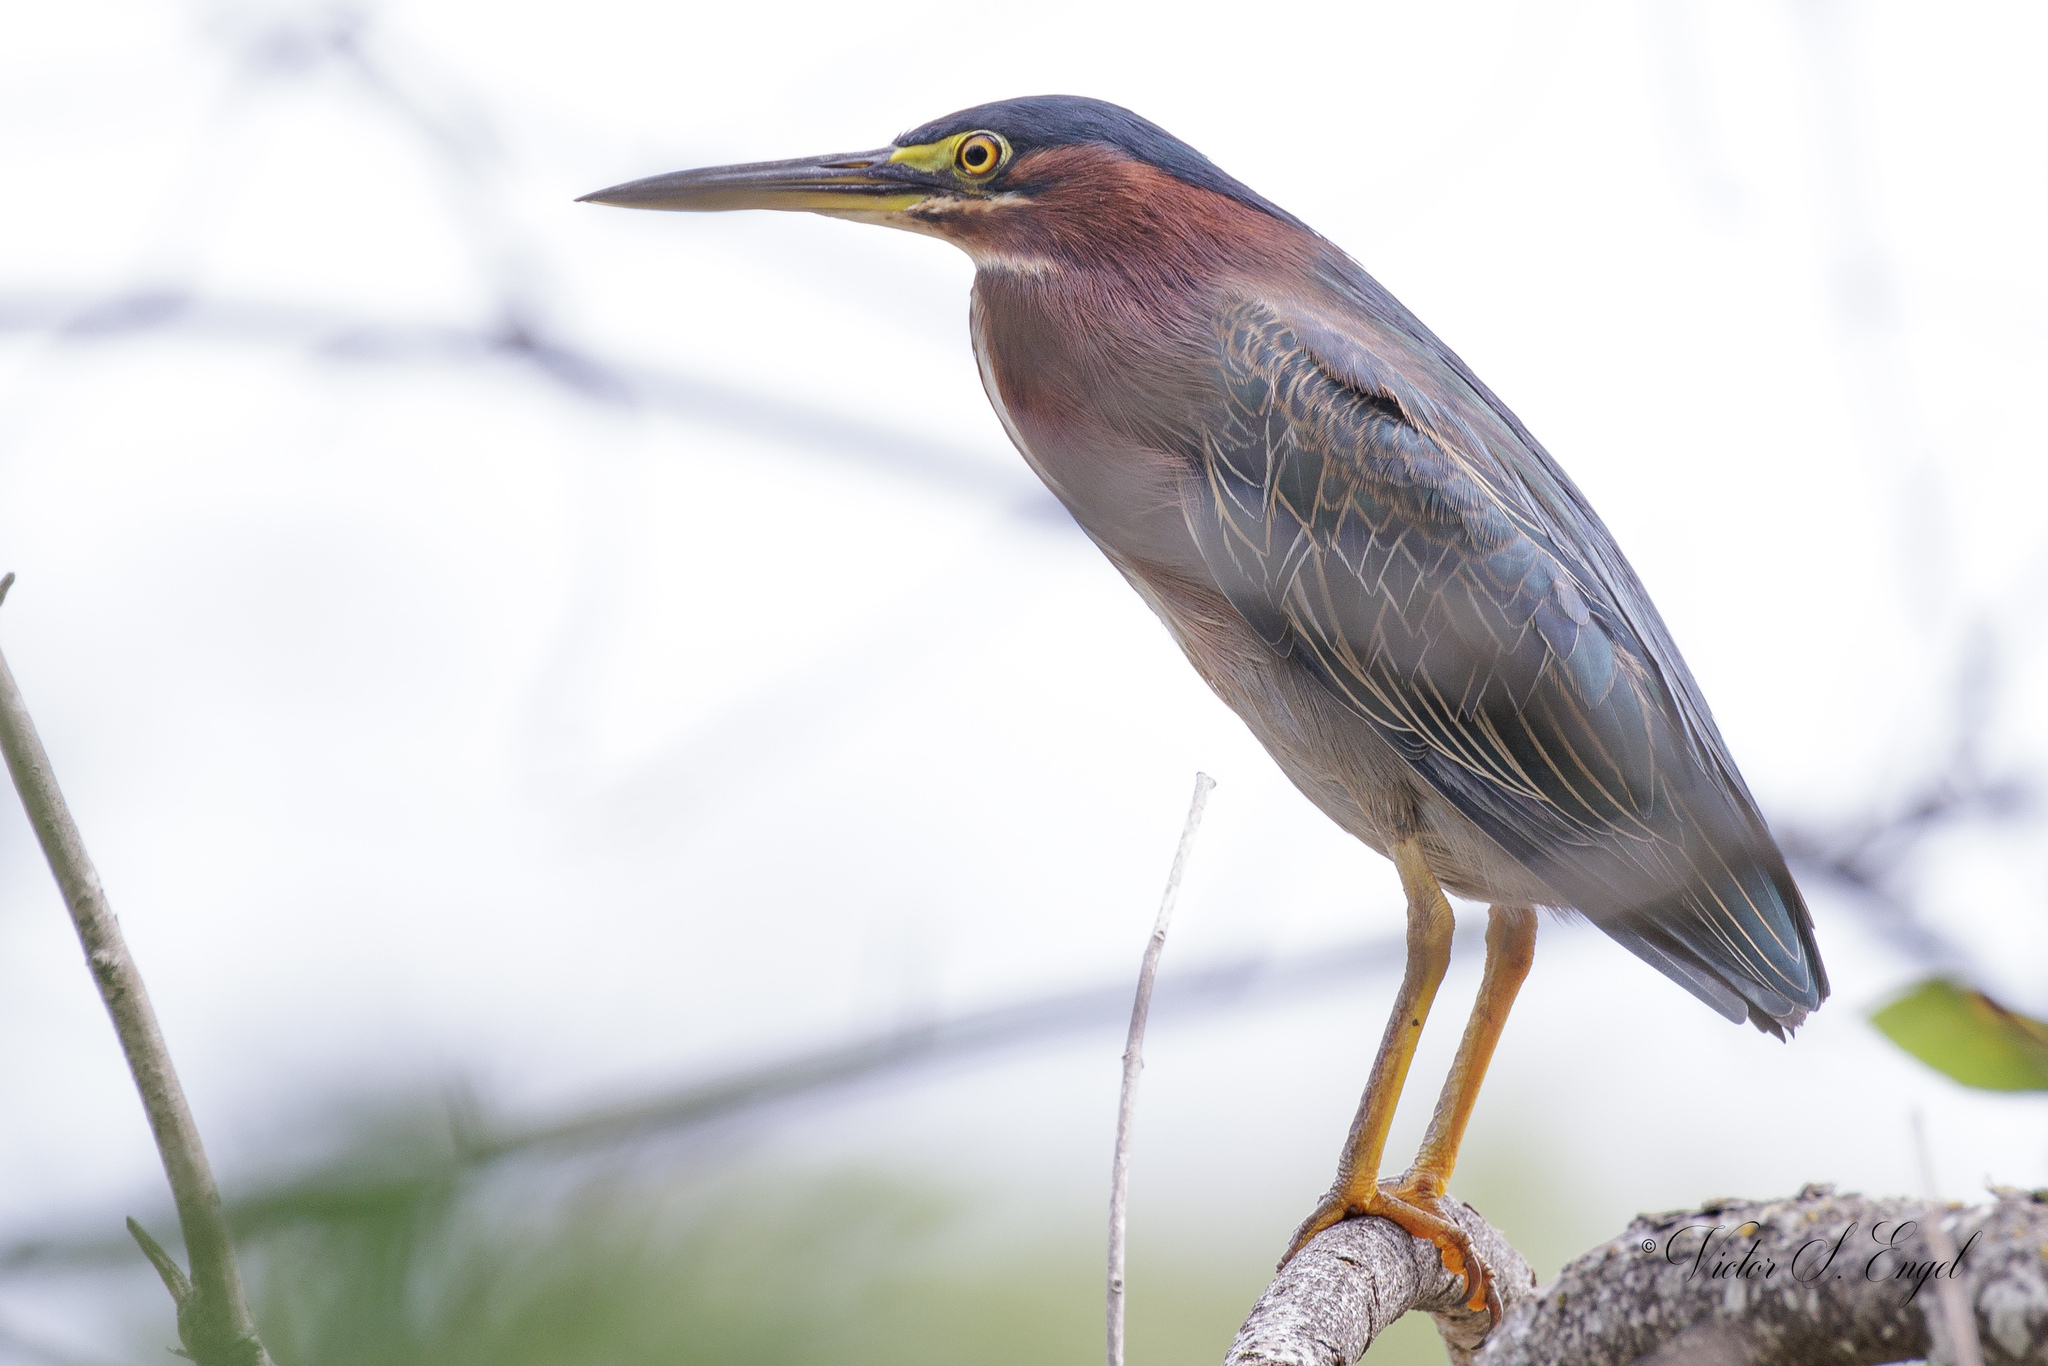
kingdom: Animalia
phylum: Chordata
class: Aves
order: Pelecaniformes
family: Ardeidae
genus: Butorides
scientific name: Butorides virescens
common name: Green heron
